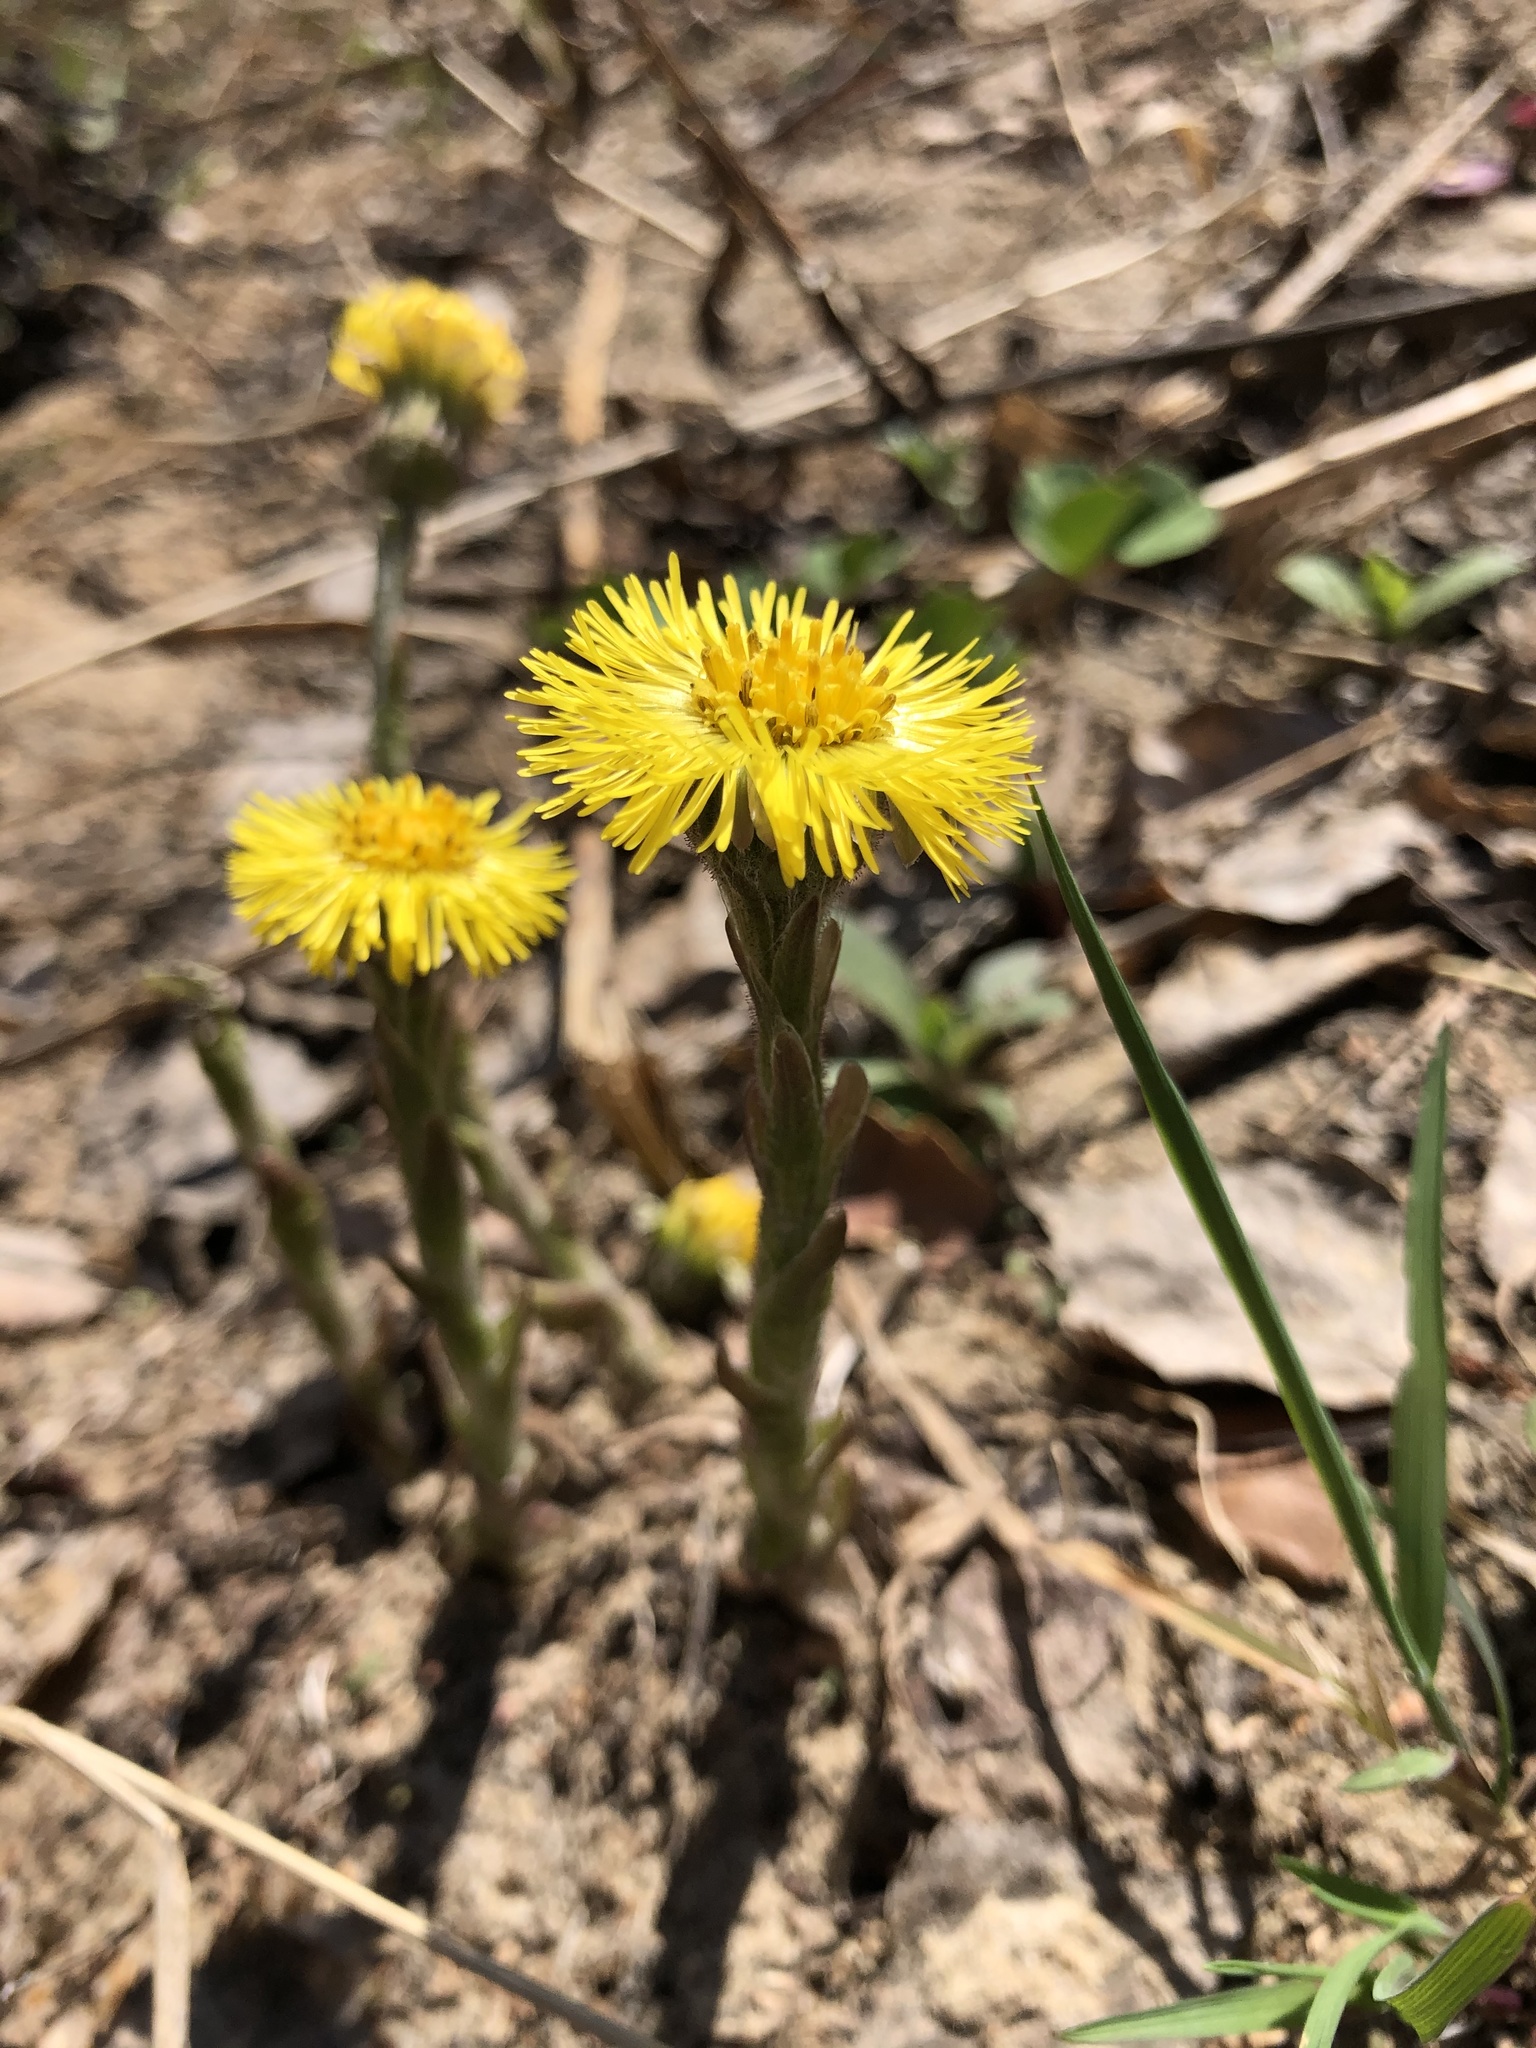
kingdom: Plantae
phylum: Tracheophyta
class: Magnoliopsida
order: Asterales
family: Asteraceae
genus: Tussilago
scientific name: Tussilago farfara
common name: Coltsfoot
